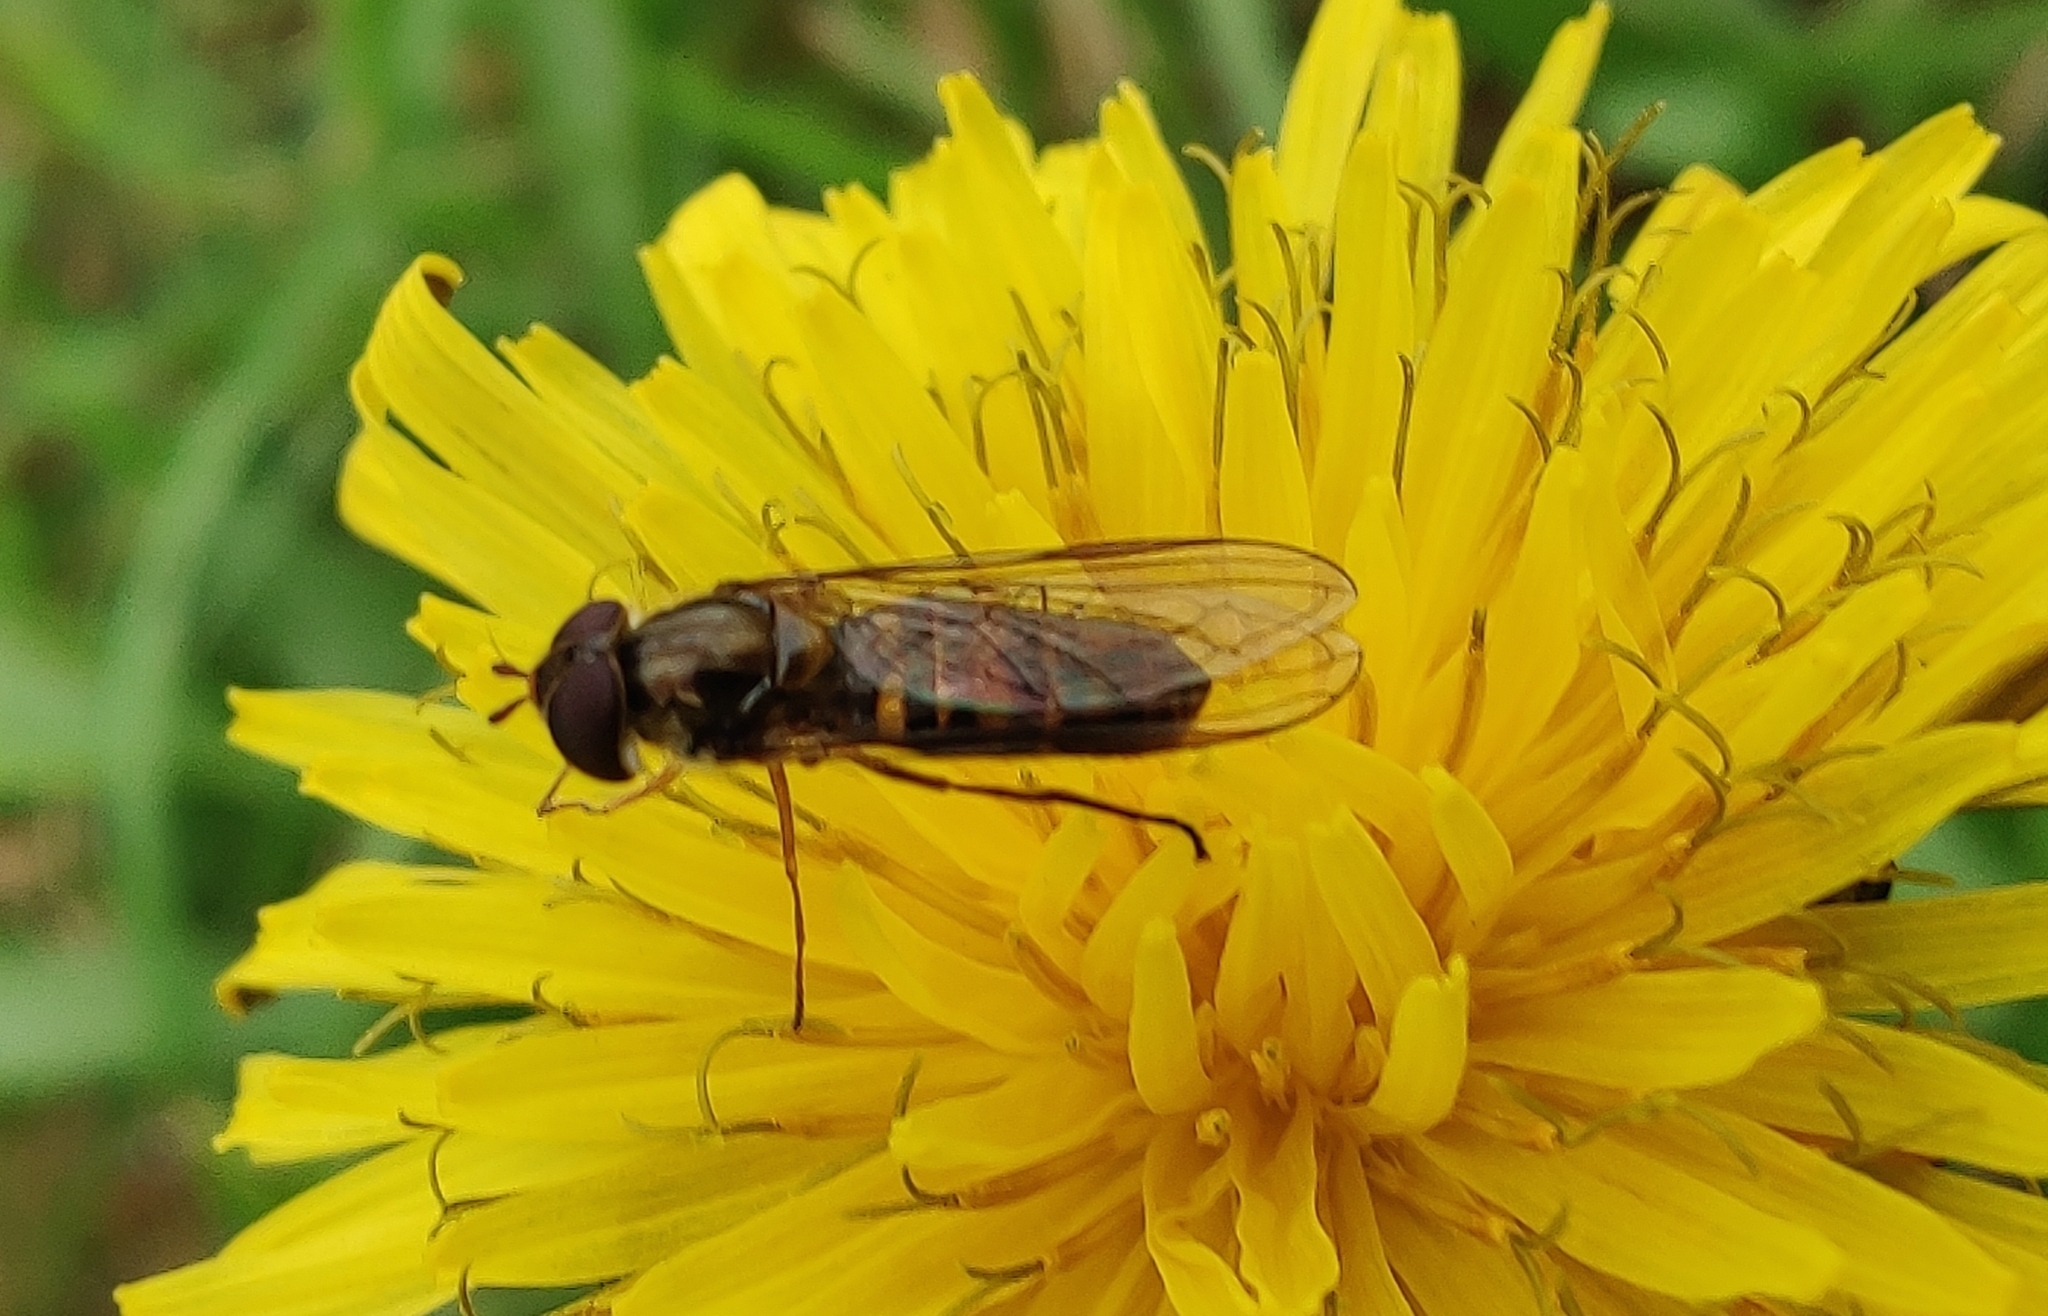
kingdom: Animalia
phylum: Arthropoda
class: Insecta
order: Diptera
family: Syrphidae
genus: Episyrphus
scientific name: Episyrphus balteatus
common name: Marmalade hoverfly
